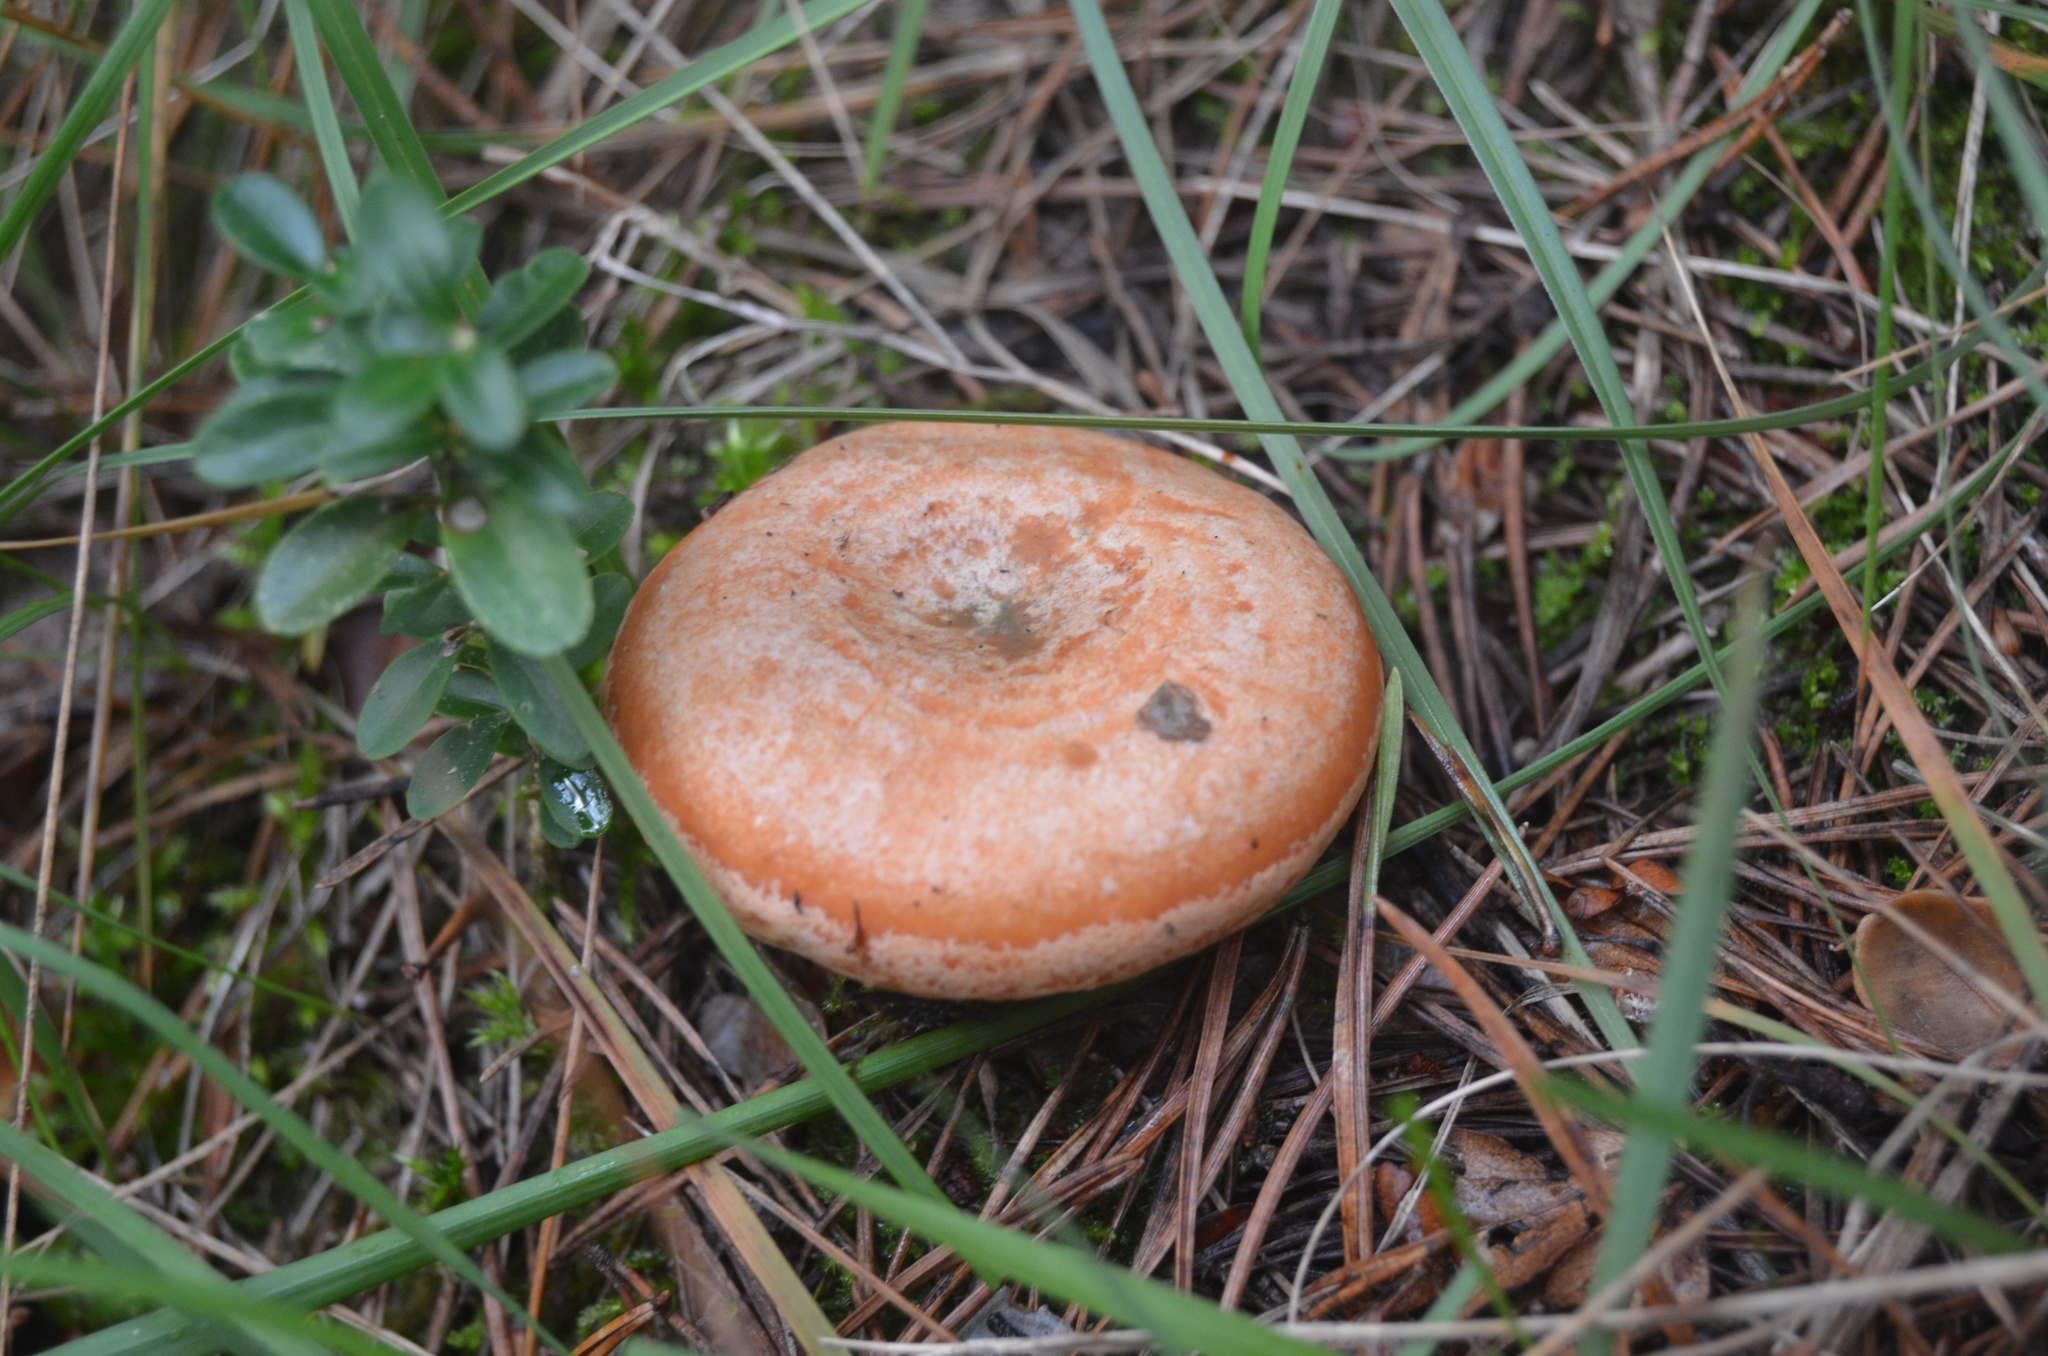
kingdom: Fungi
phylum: Basidiomycota
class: Agaricomycetes
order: Russulales
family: Russulaceae
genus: Lactarius
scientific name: Lactarius deliciosus
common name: Saffron milk-cap
